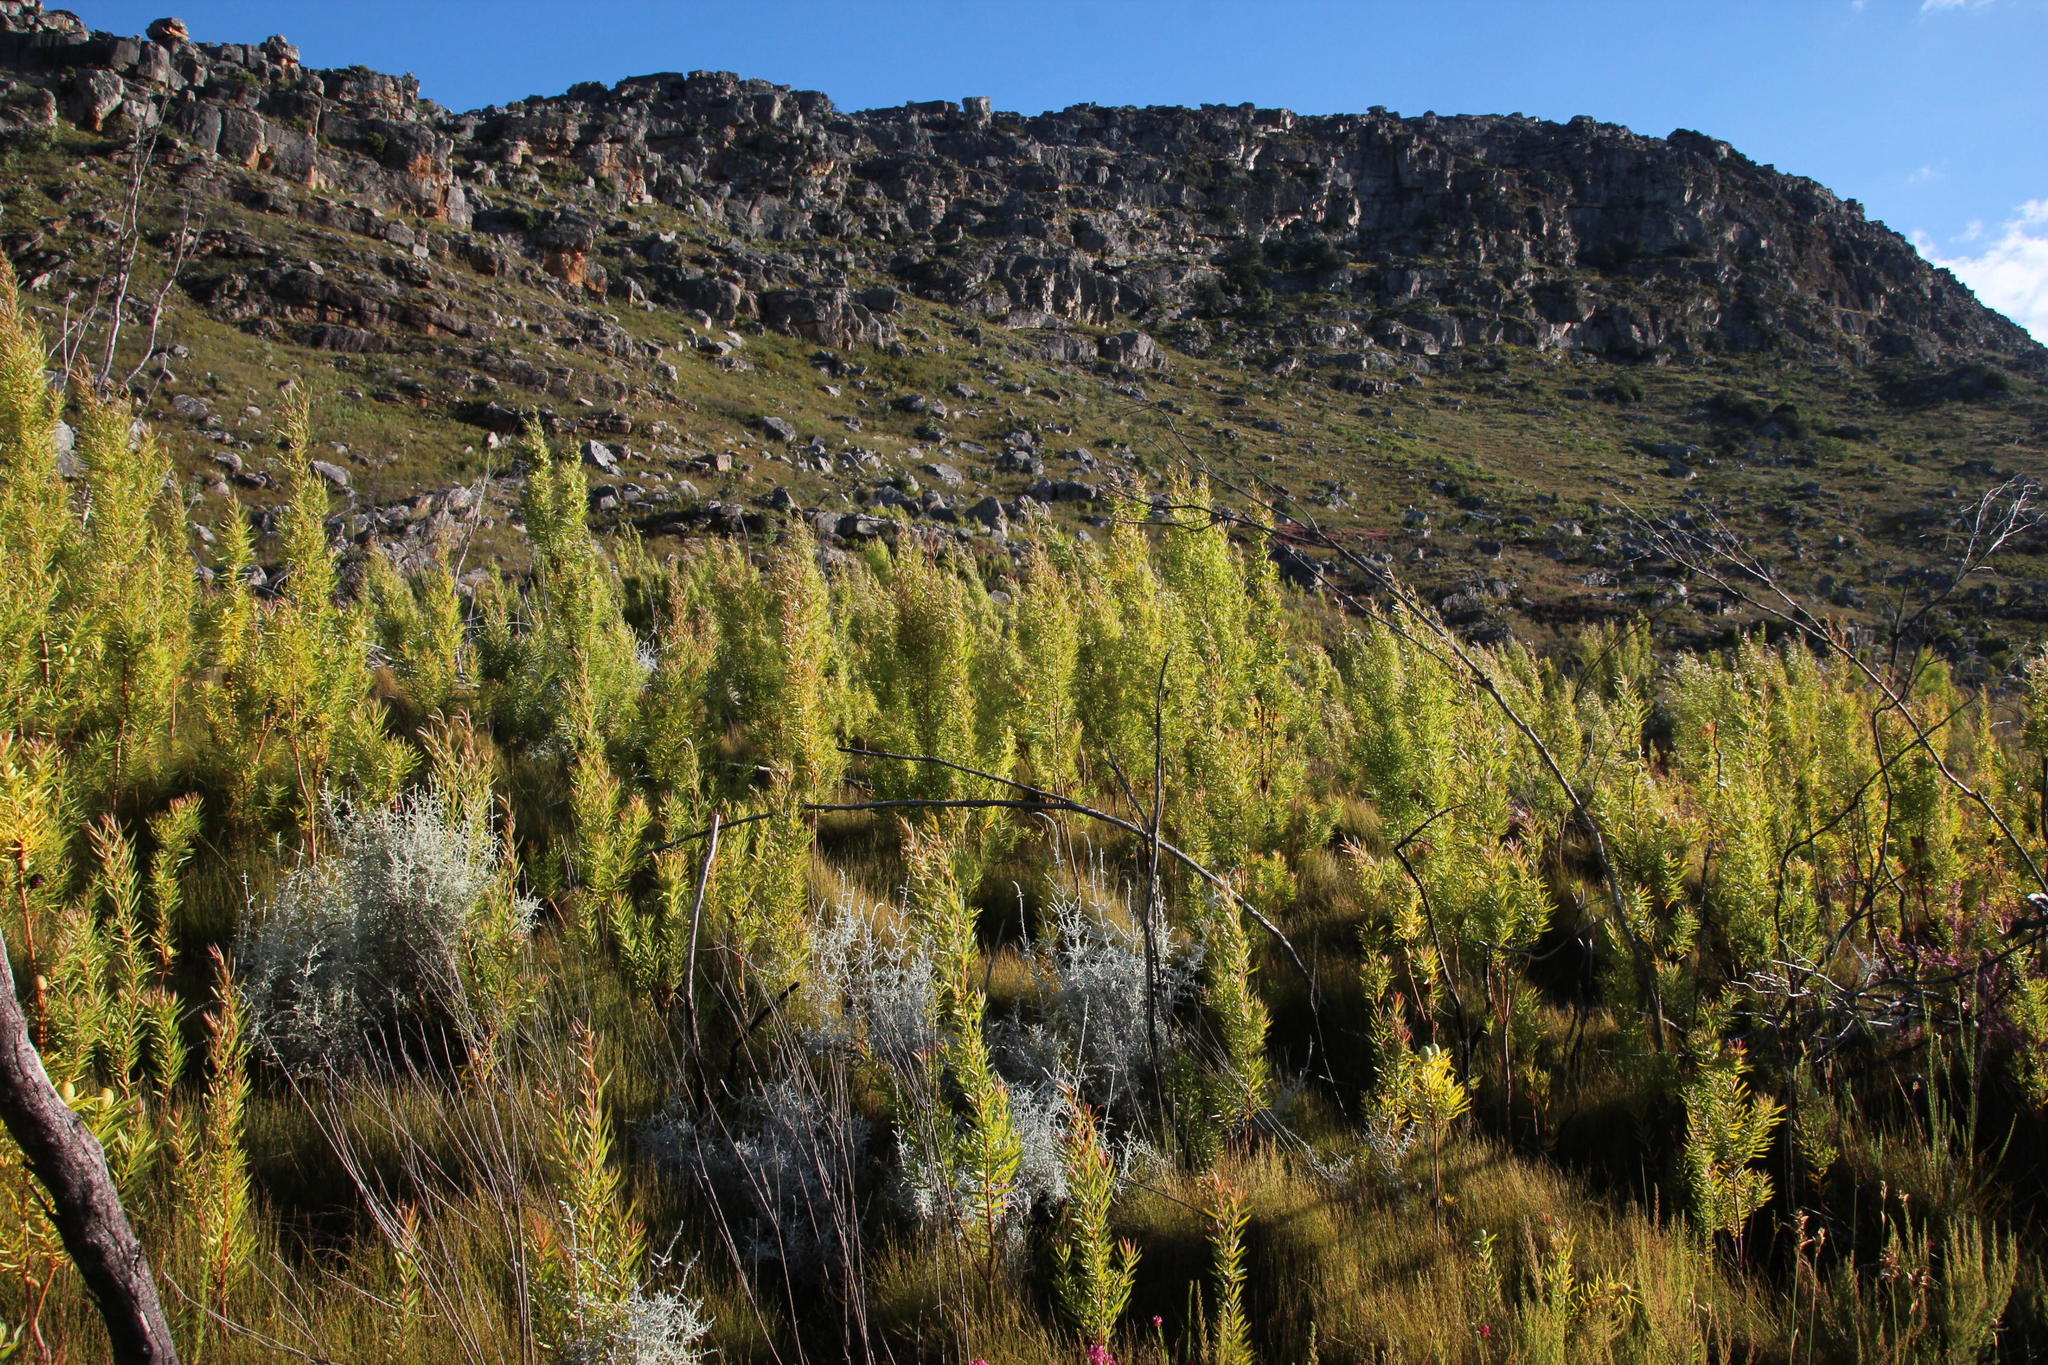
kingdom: Plantae
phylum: Tracheophyta
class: Magnoliopsida
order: Proteales
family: Proteaceae
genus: Leucadendron
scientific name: Leucadendron salicifolium
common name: Common stream conebush
